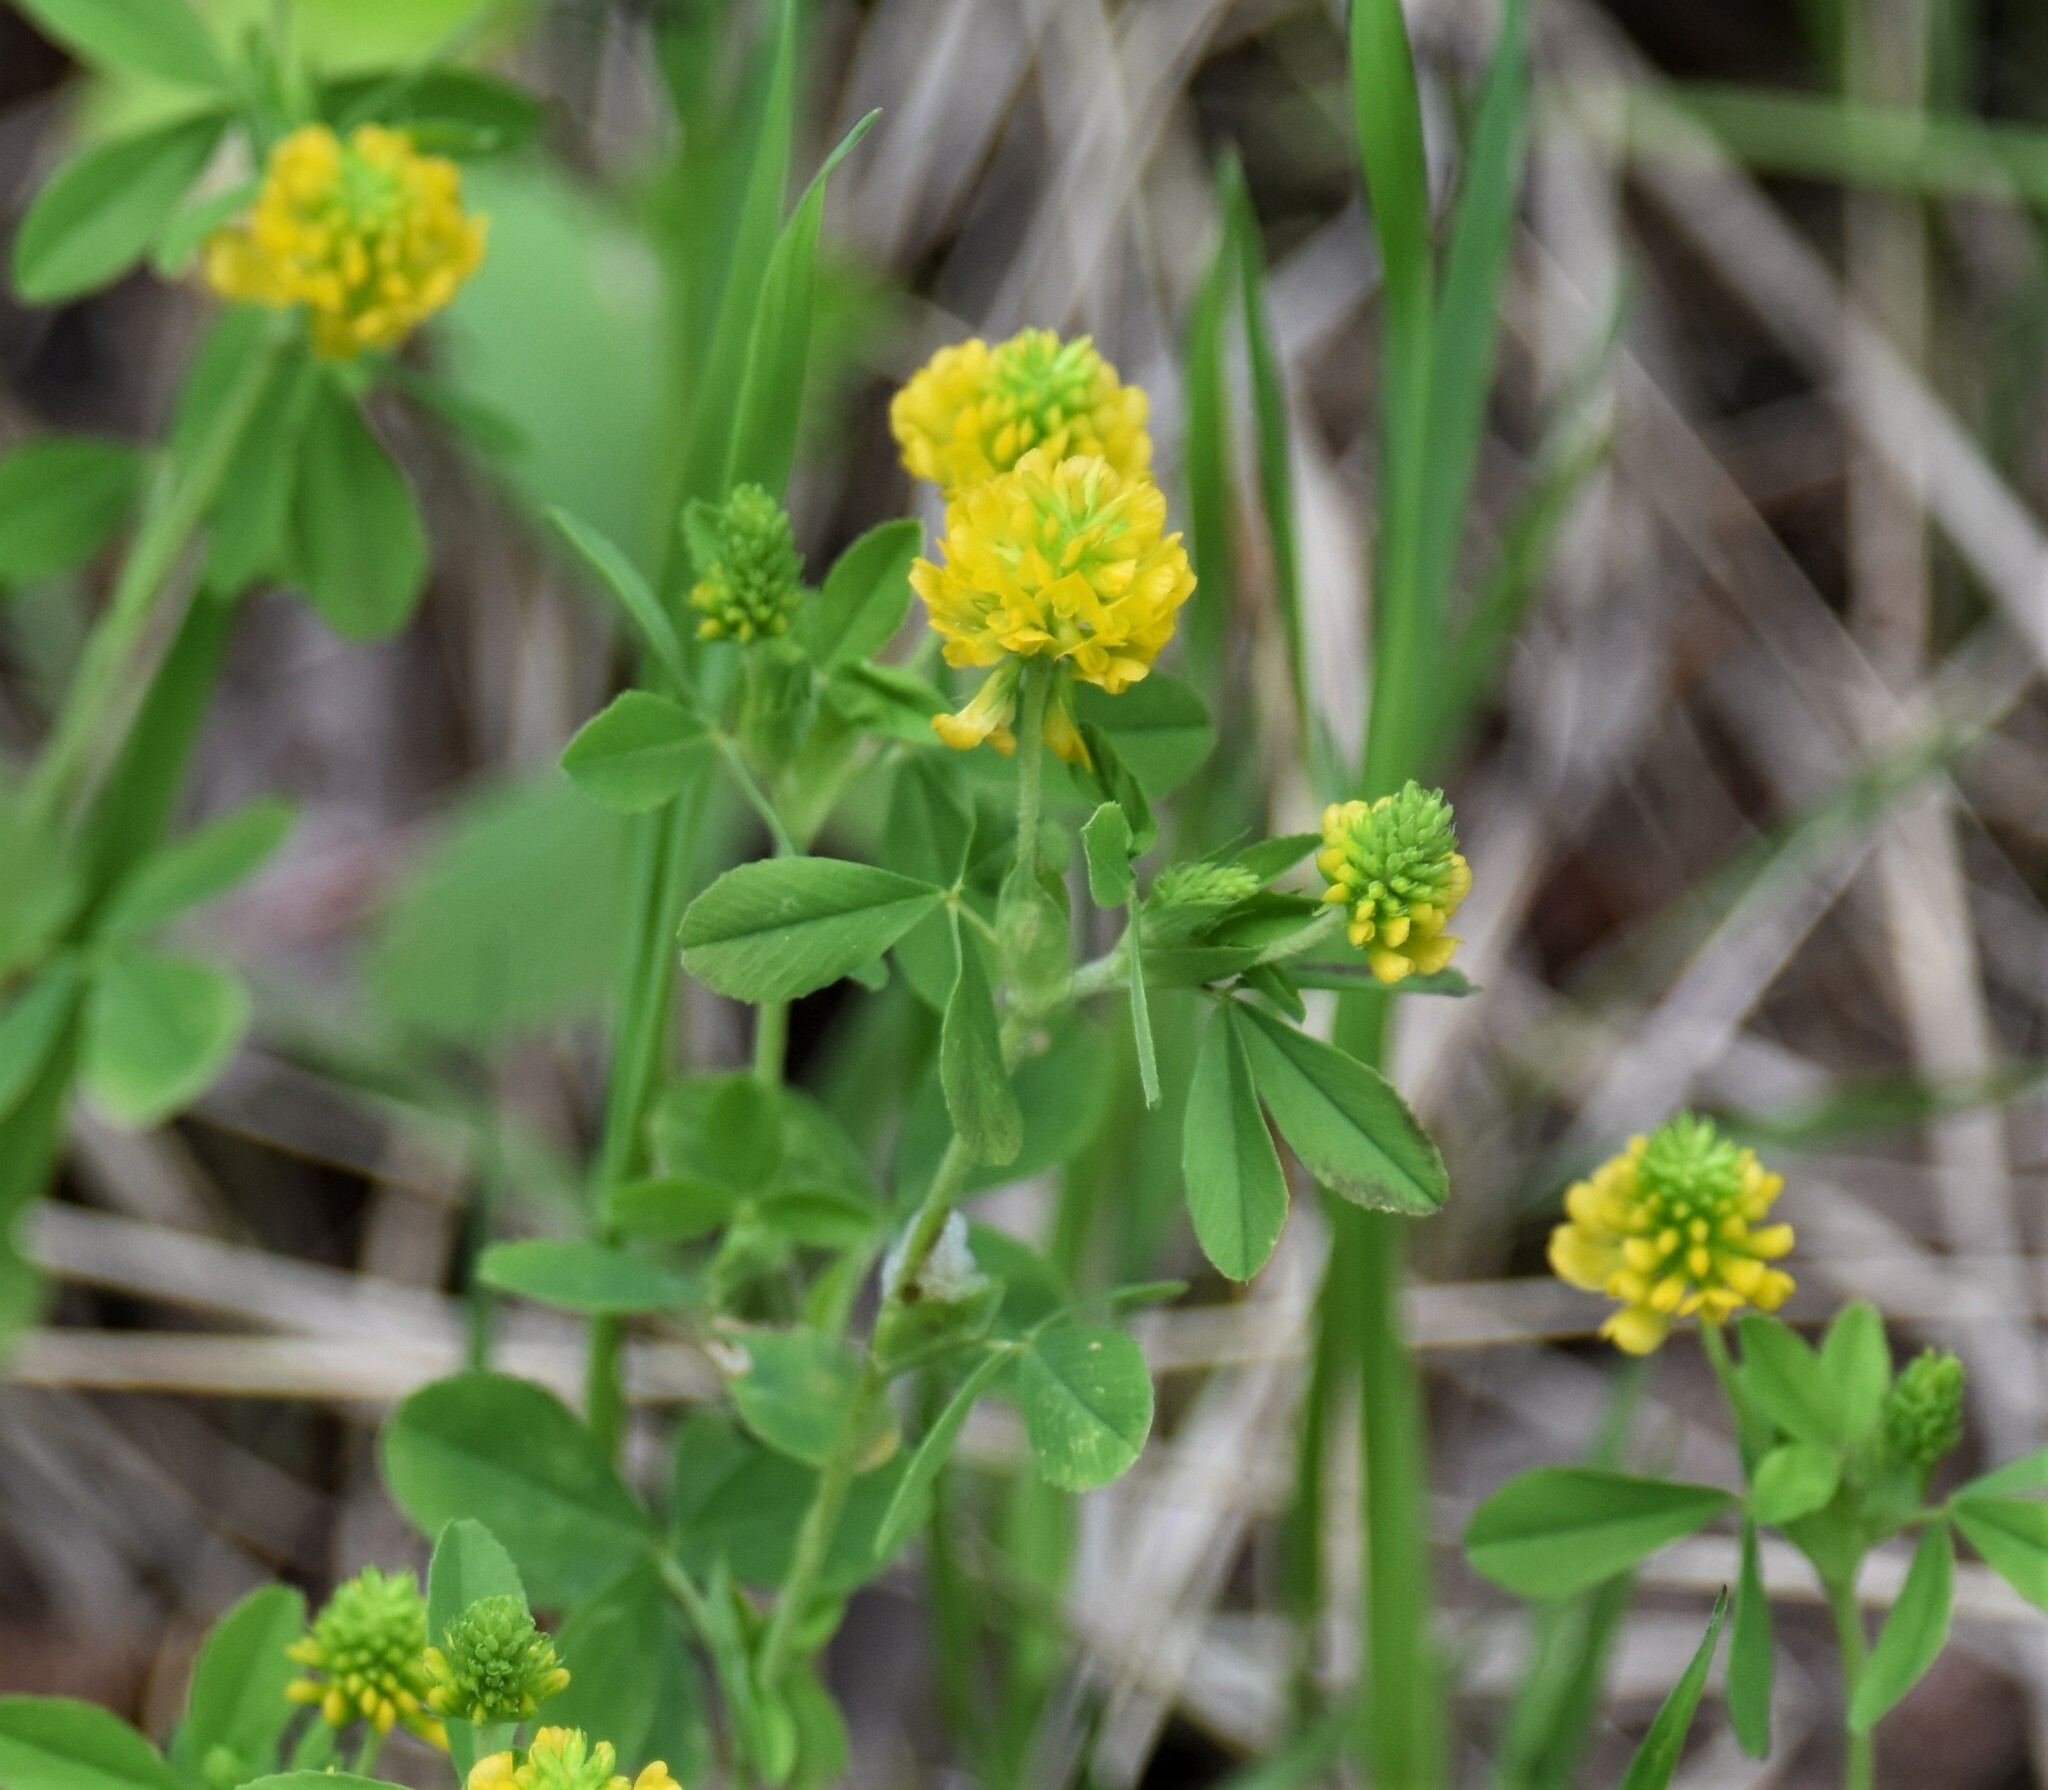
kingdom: Plantae
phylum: Tracheophyta
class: Magnoliopsida
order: Fabales
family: Fabaceae
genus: Trifolium
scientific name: Trifolium aureum
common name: Golden clover
